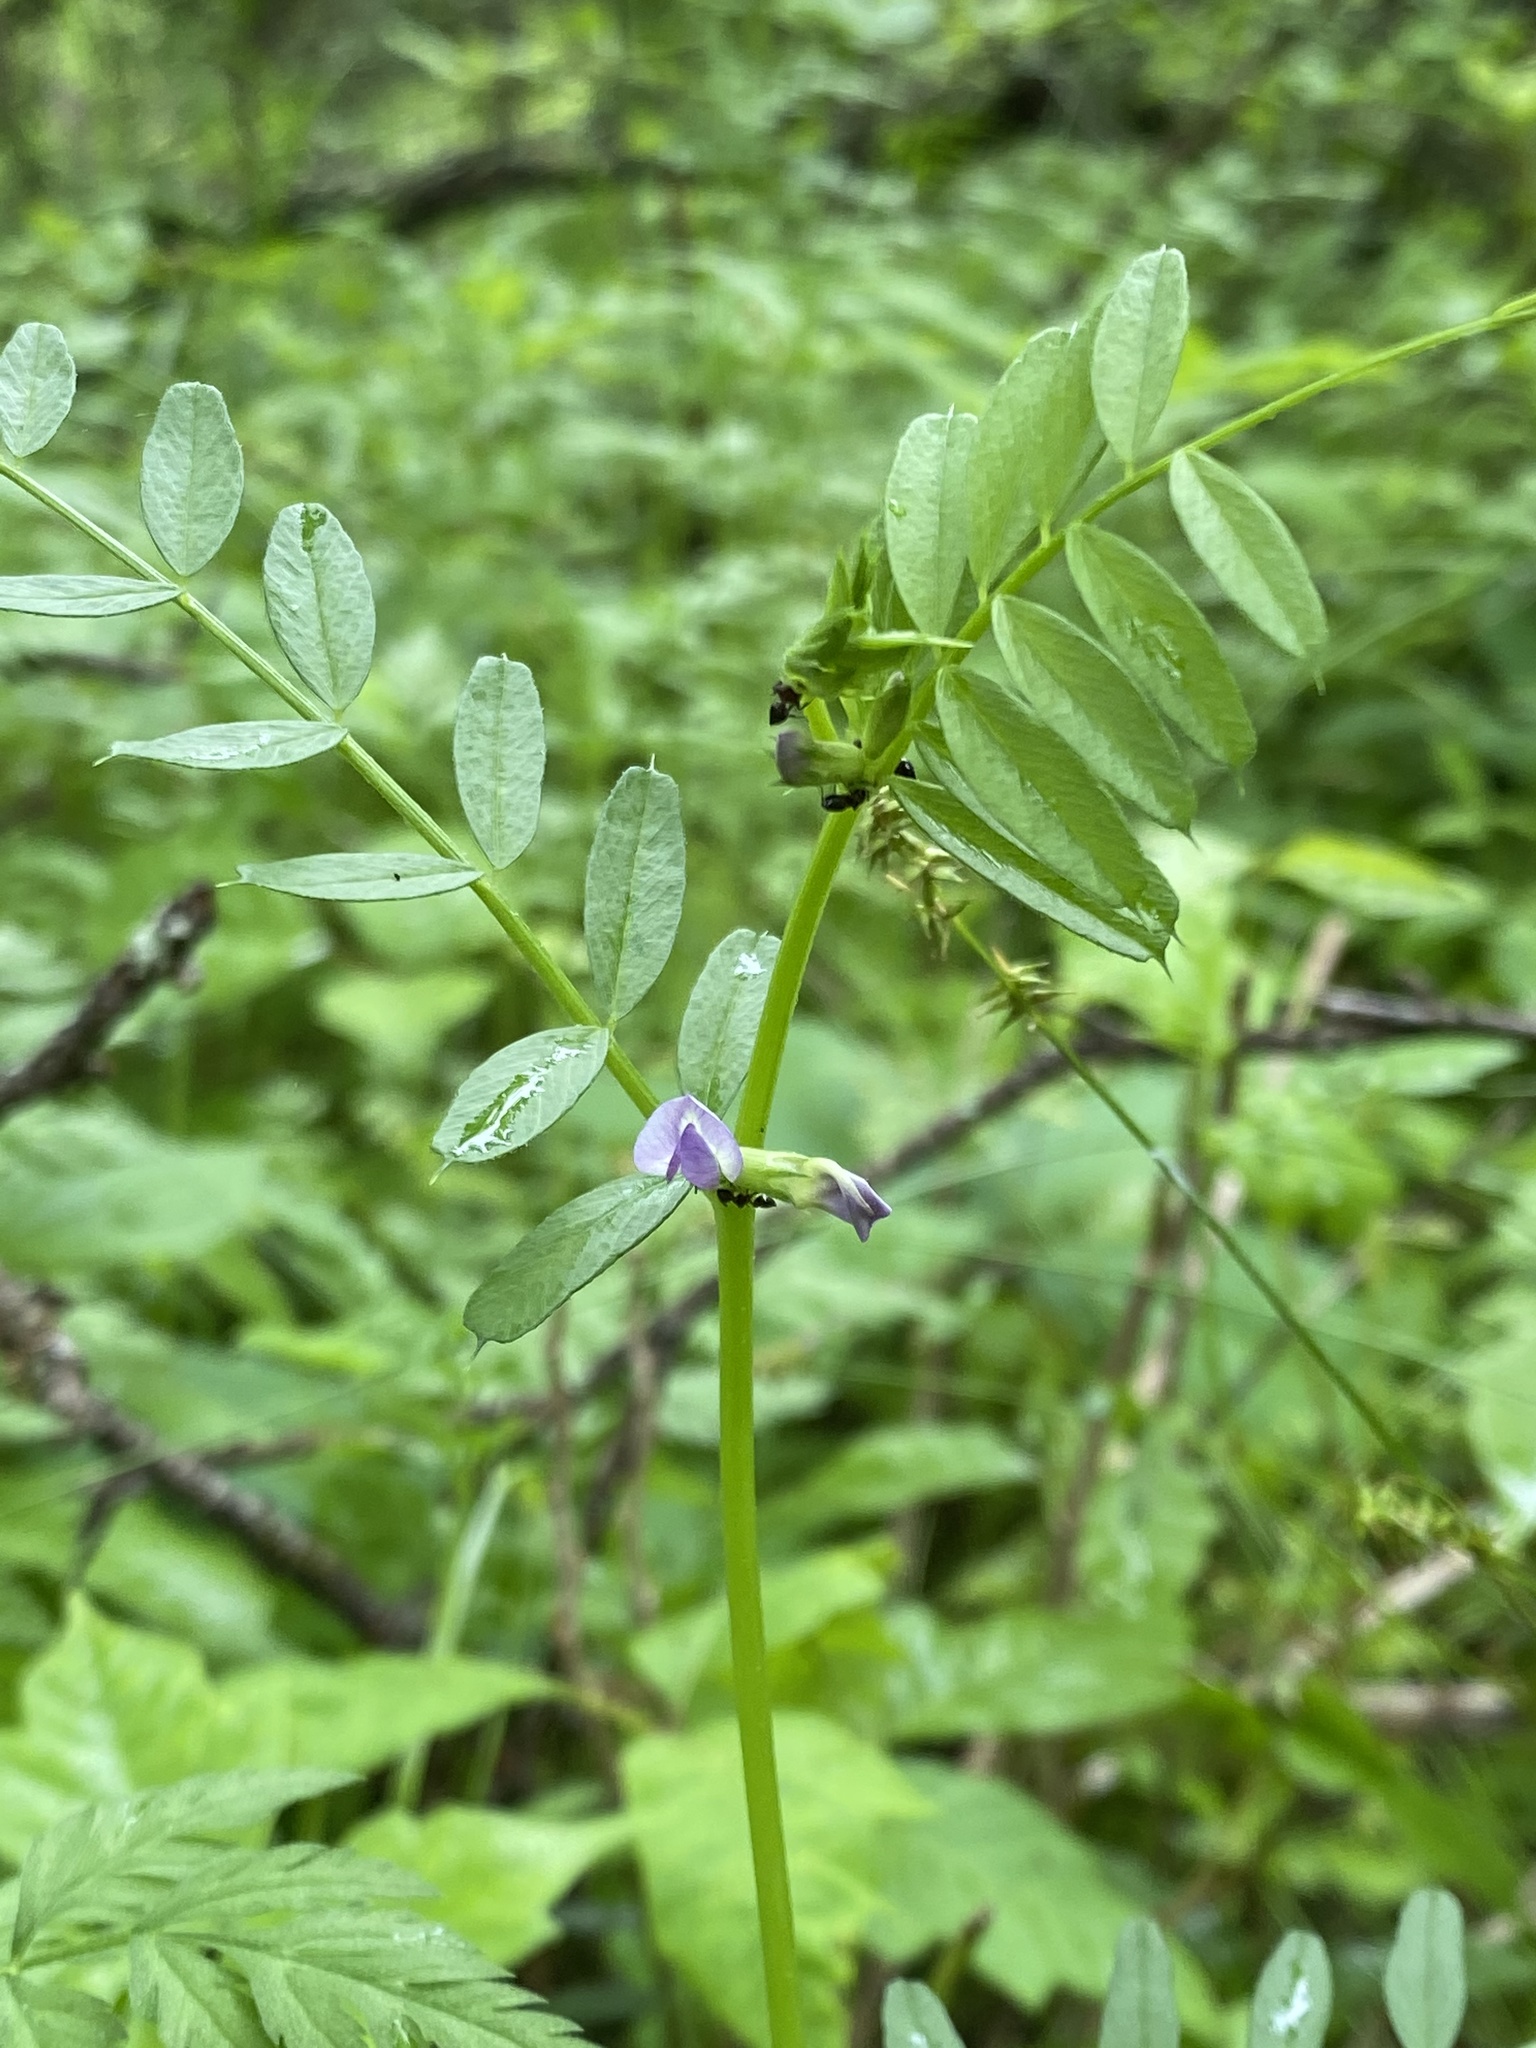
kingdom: Plantae
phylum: Tracheophyta
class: Magnoliopsida
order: Fabales
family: Fabaceae
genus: Vicia
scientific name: Vicia sativa
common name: Garden vetch
